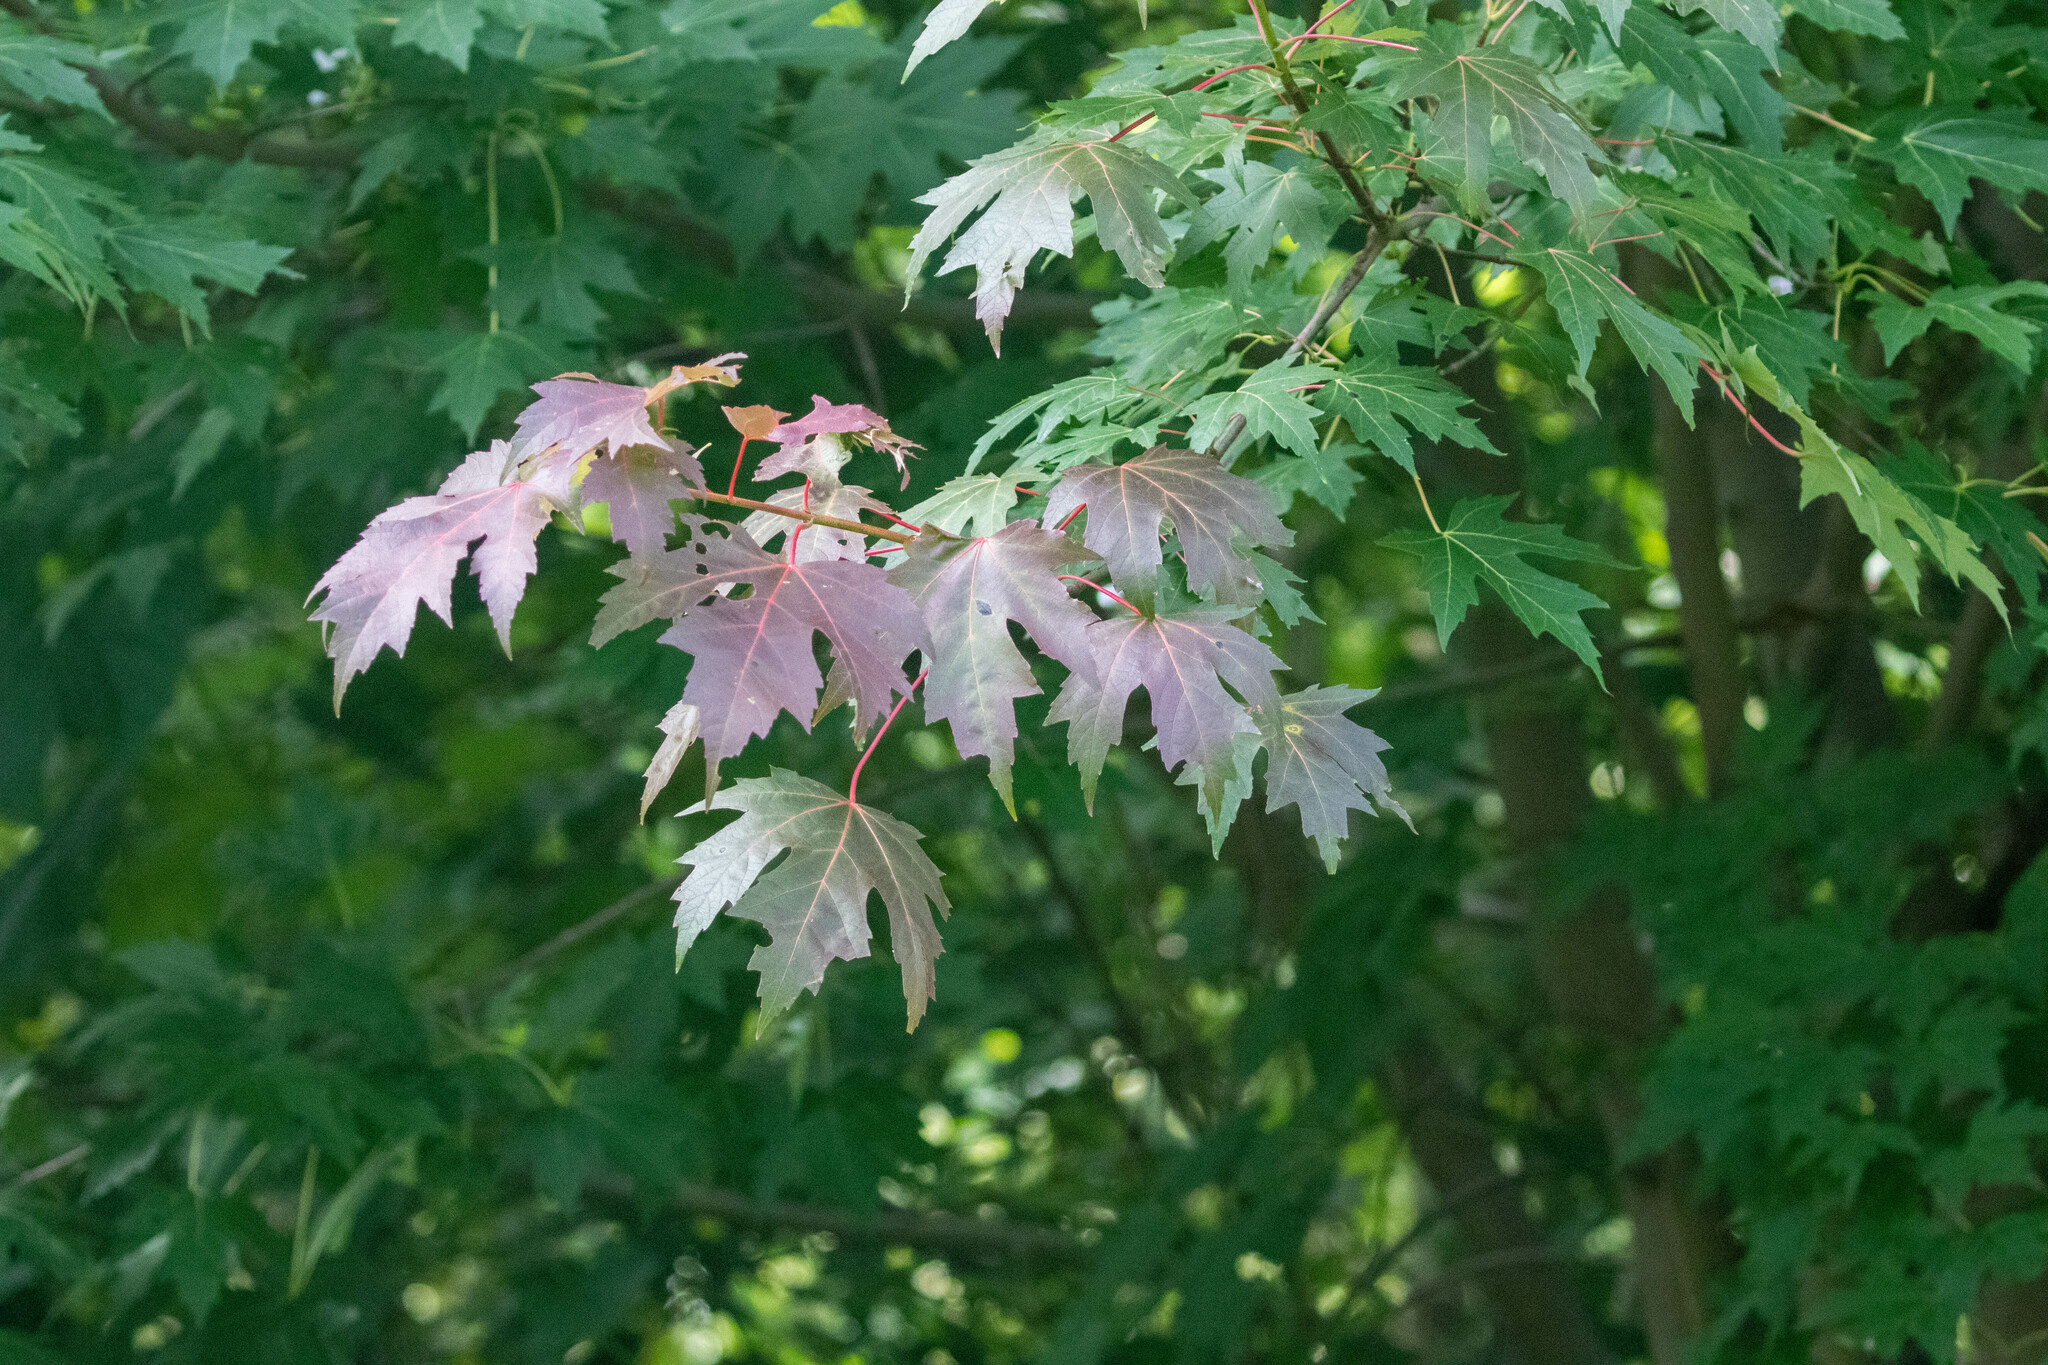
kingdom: Plantae
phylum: Tracheophyta
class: Magnoliopsida
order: Sapindales
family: Sapindaceae
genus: Acer
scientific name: Acer saccharinum
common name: Silver maple
